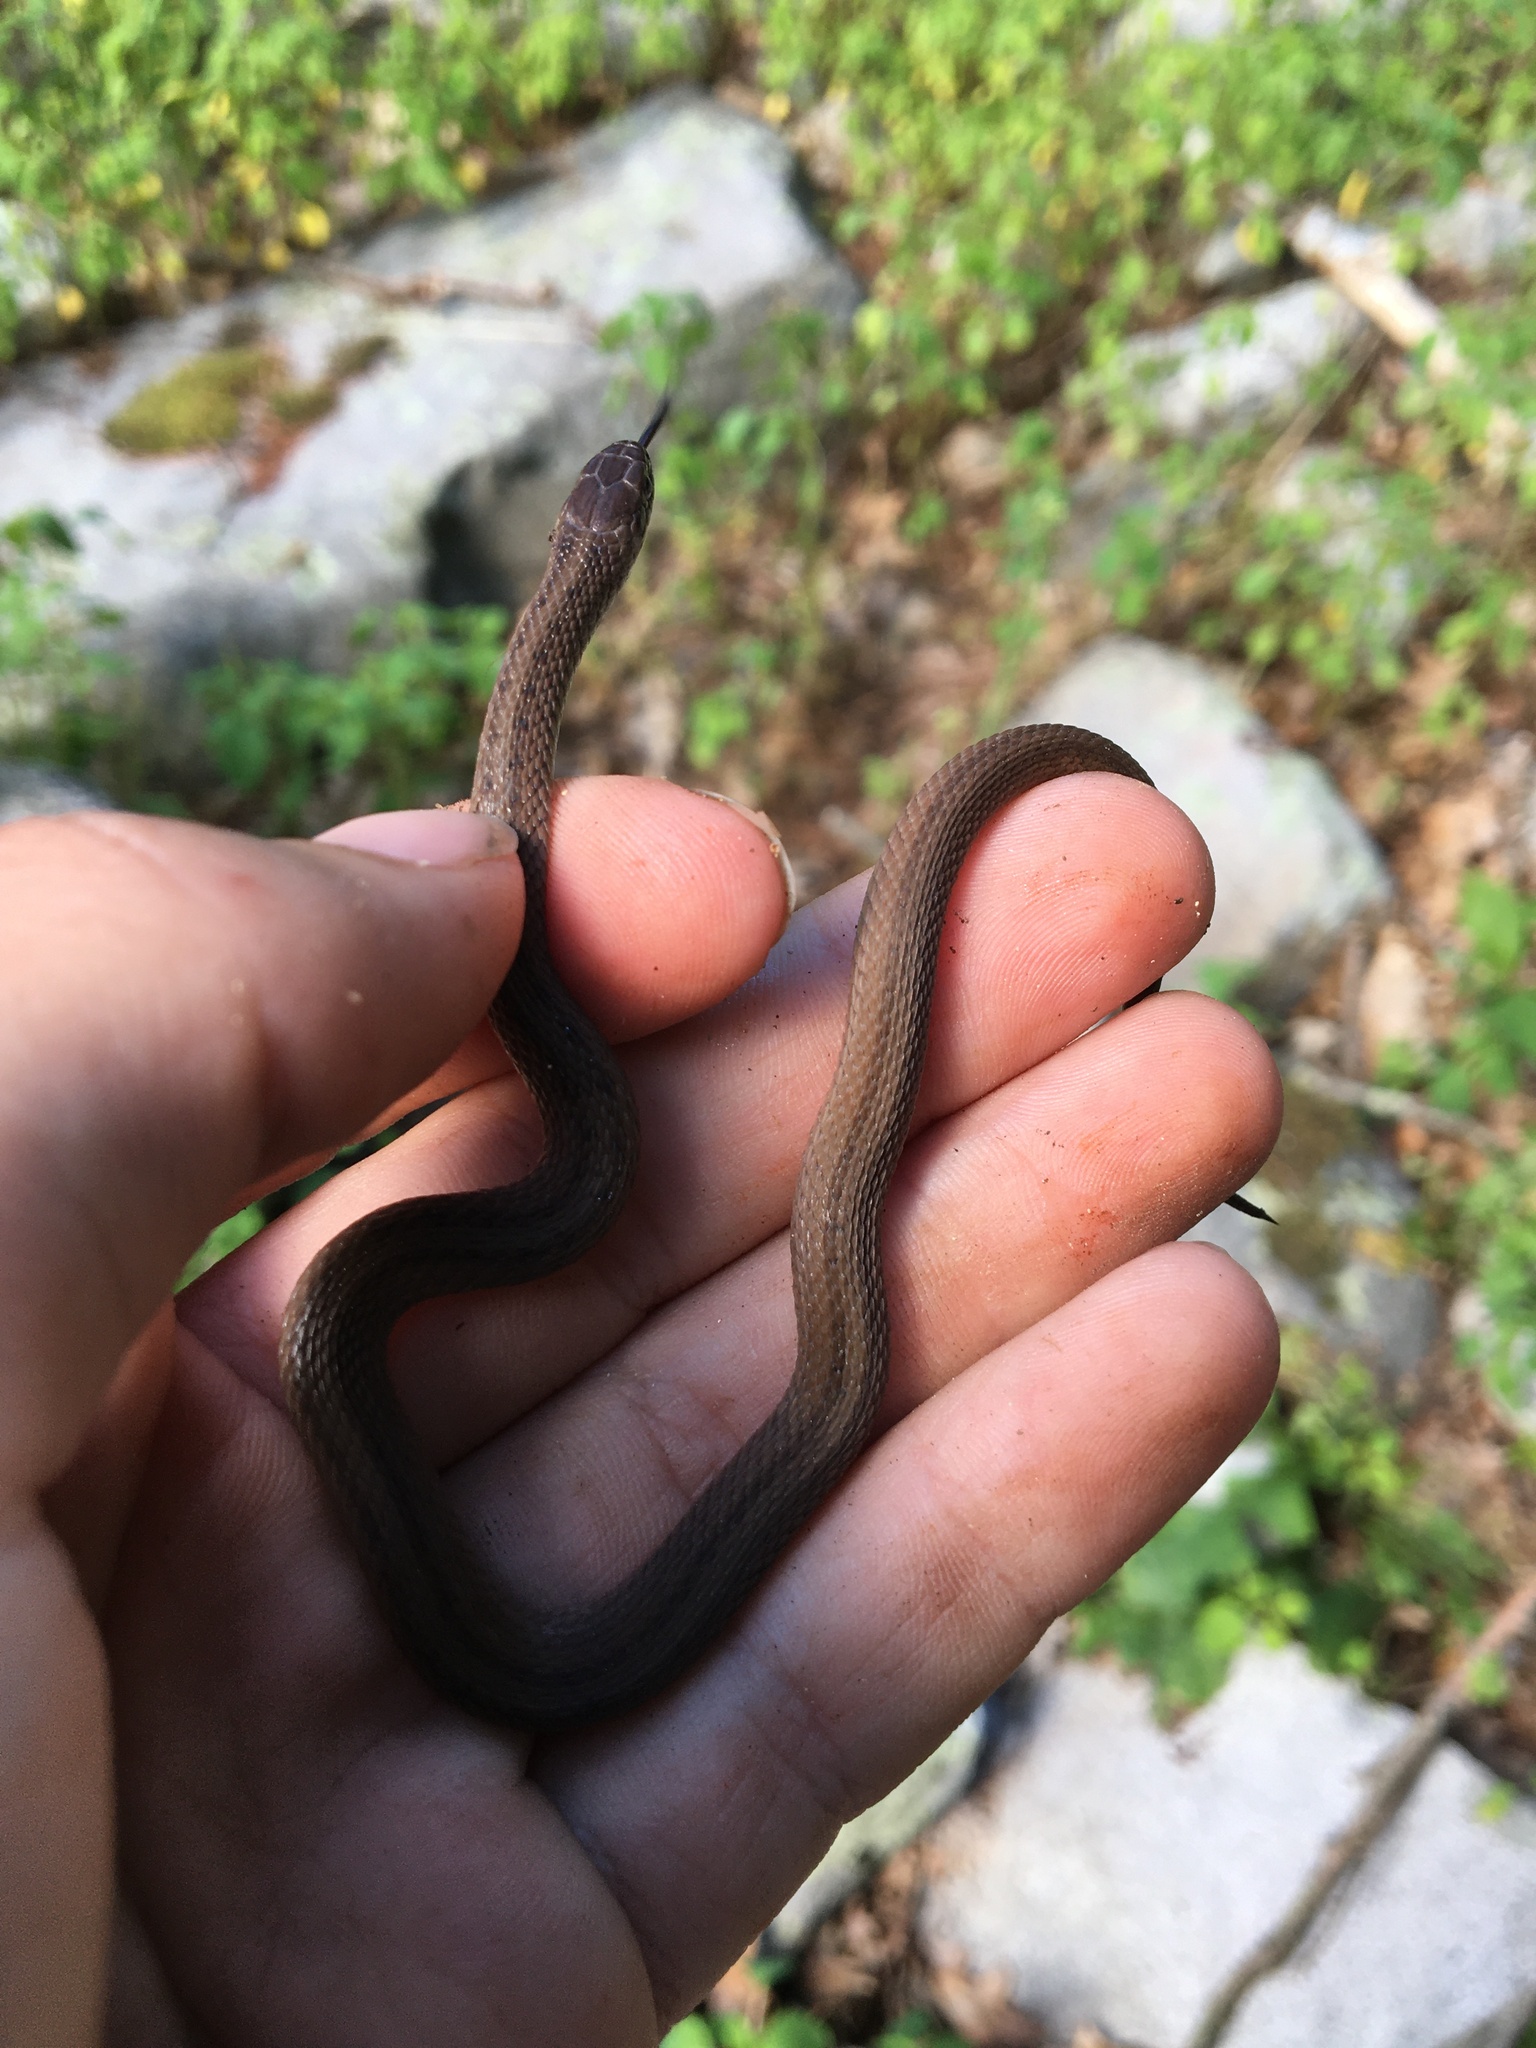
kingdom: Animalia
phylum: Chordata
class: Squamata
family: Colubridae
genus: Storeria
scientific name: Storeria dekayi
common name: (dekay’s) brown snake
